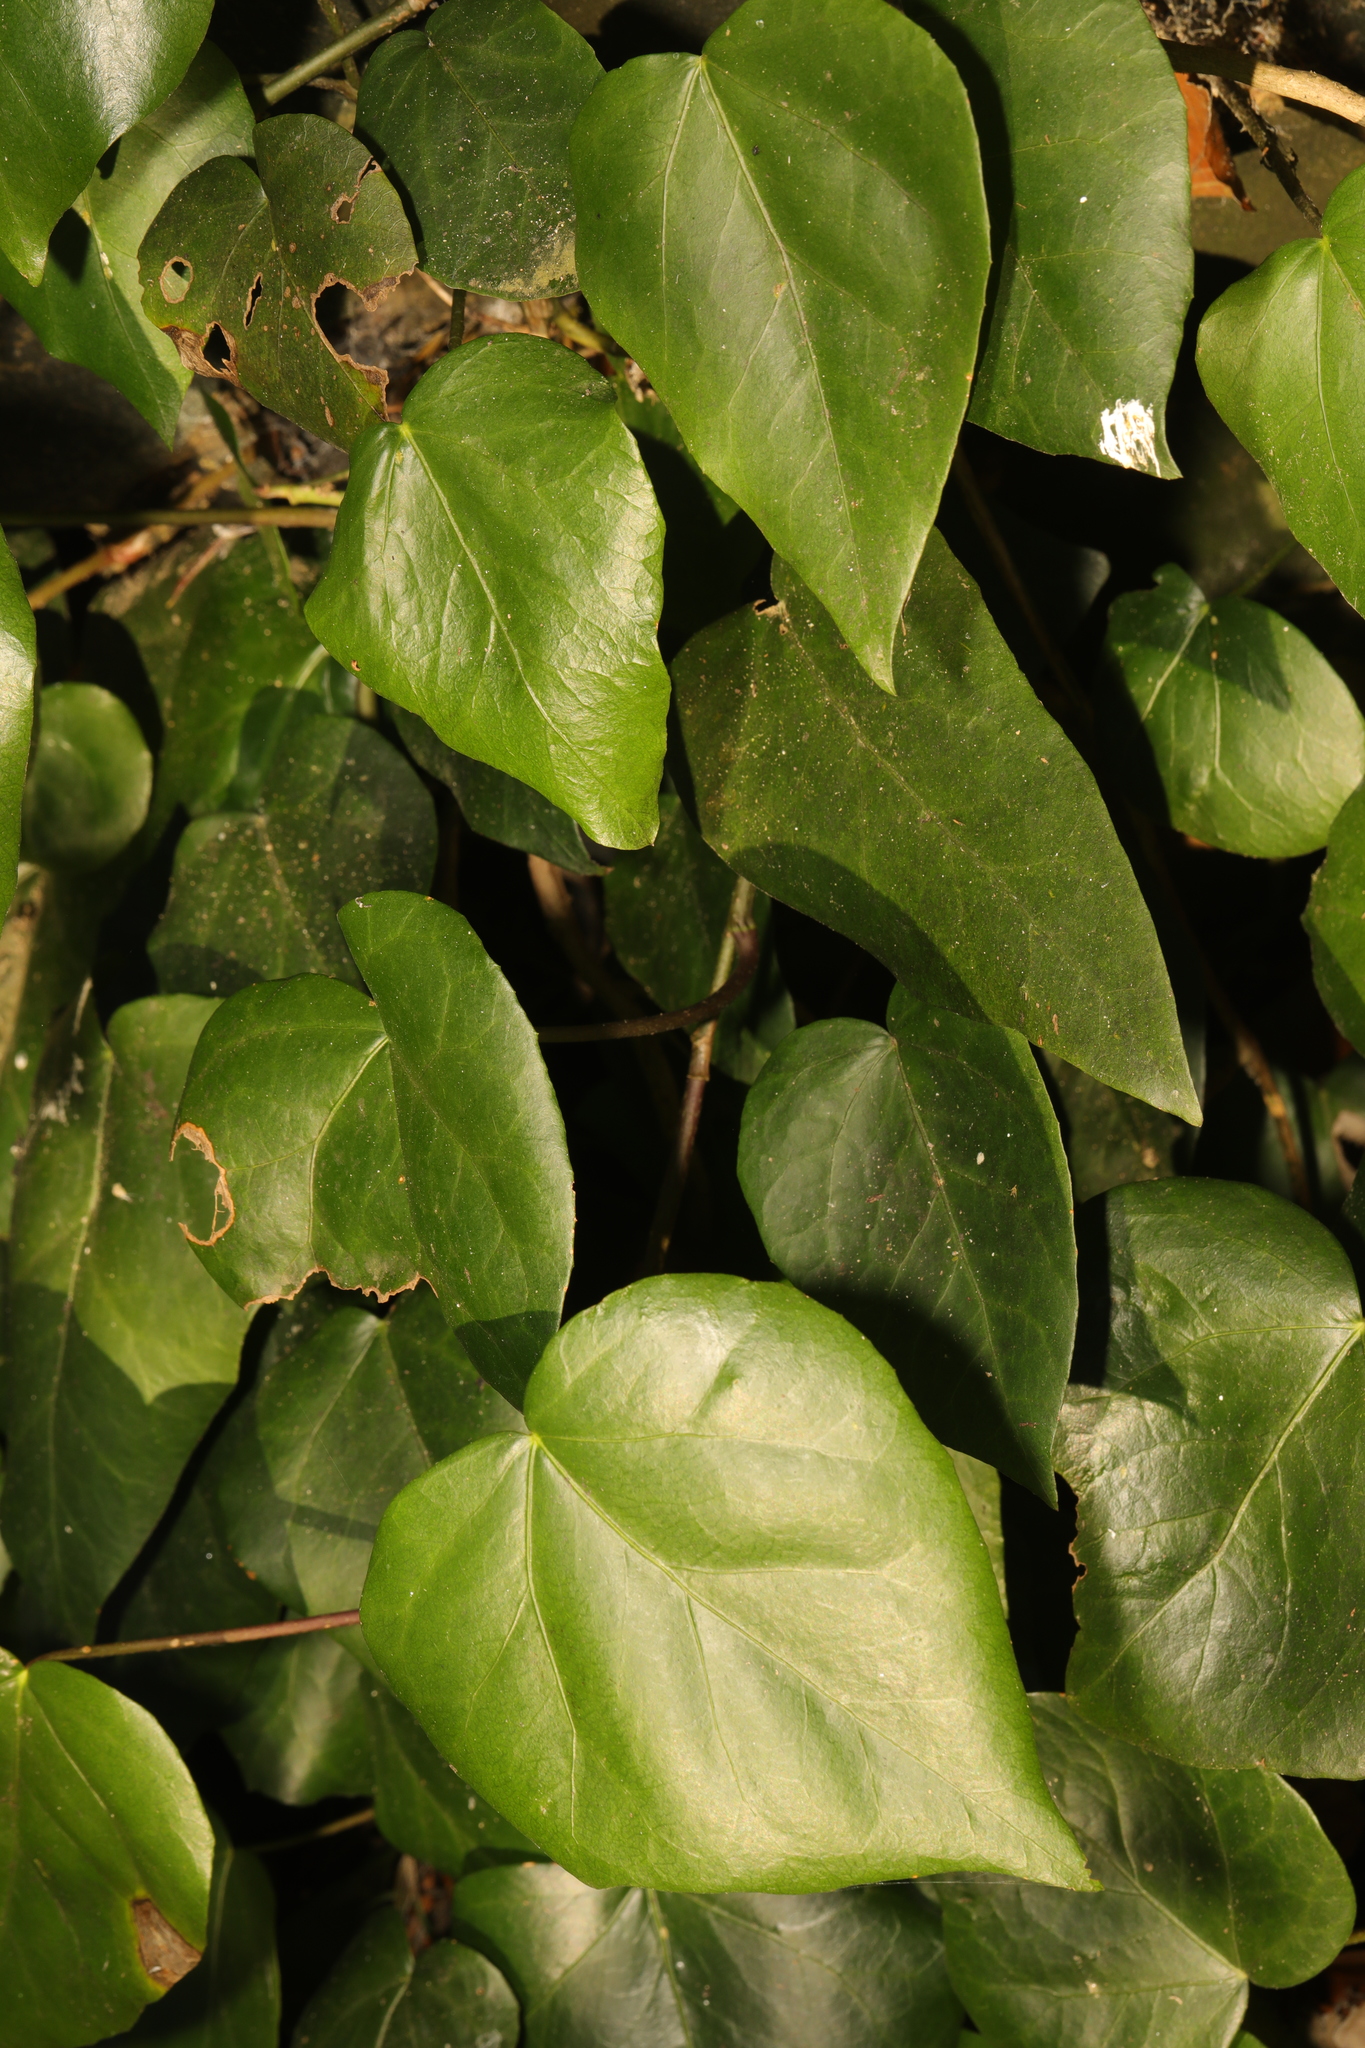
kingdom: Plantae
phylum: Tracheophyta
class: Magnoliopsida
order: Apiales
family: Araliaceae
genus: Hedera
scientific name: Hedera colchica
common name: Persian ivy
